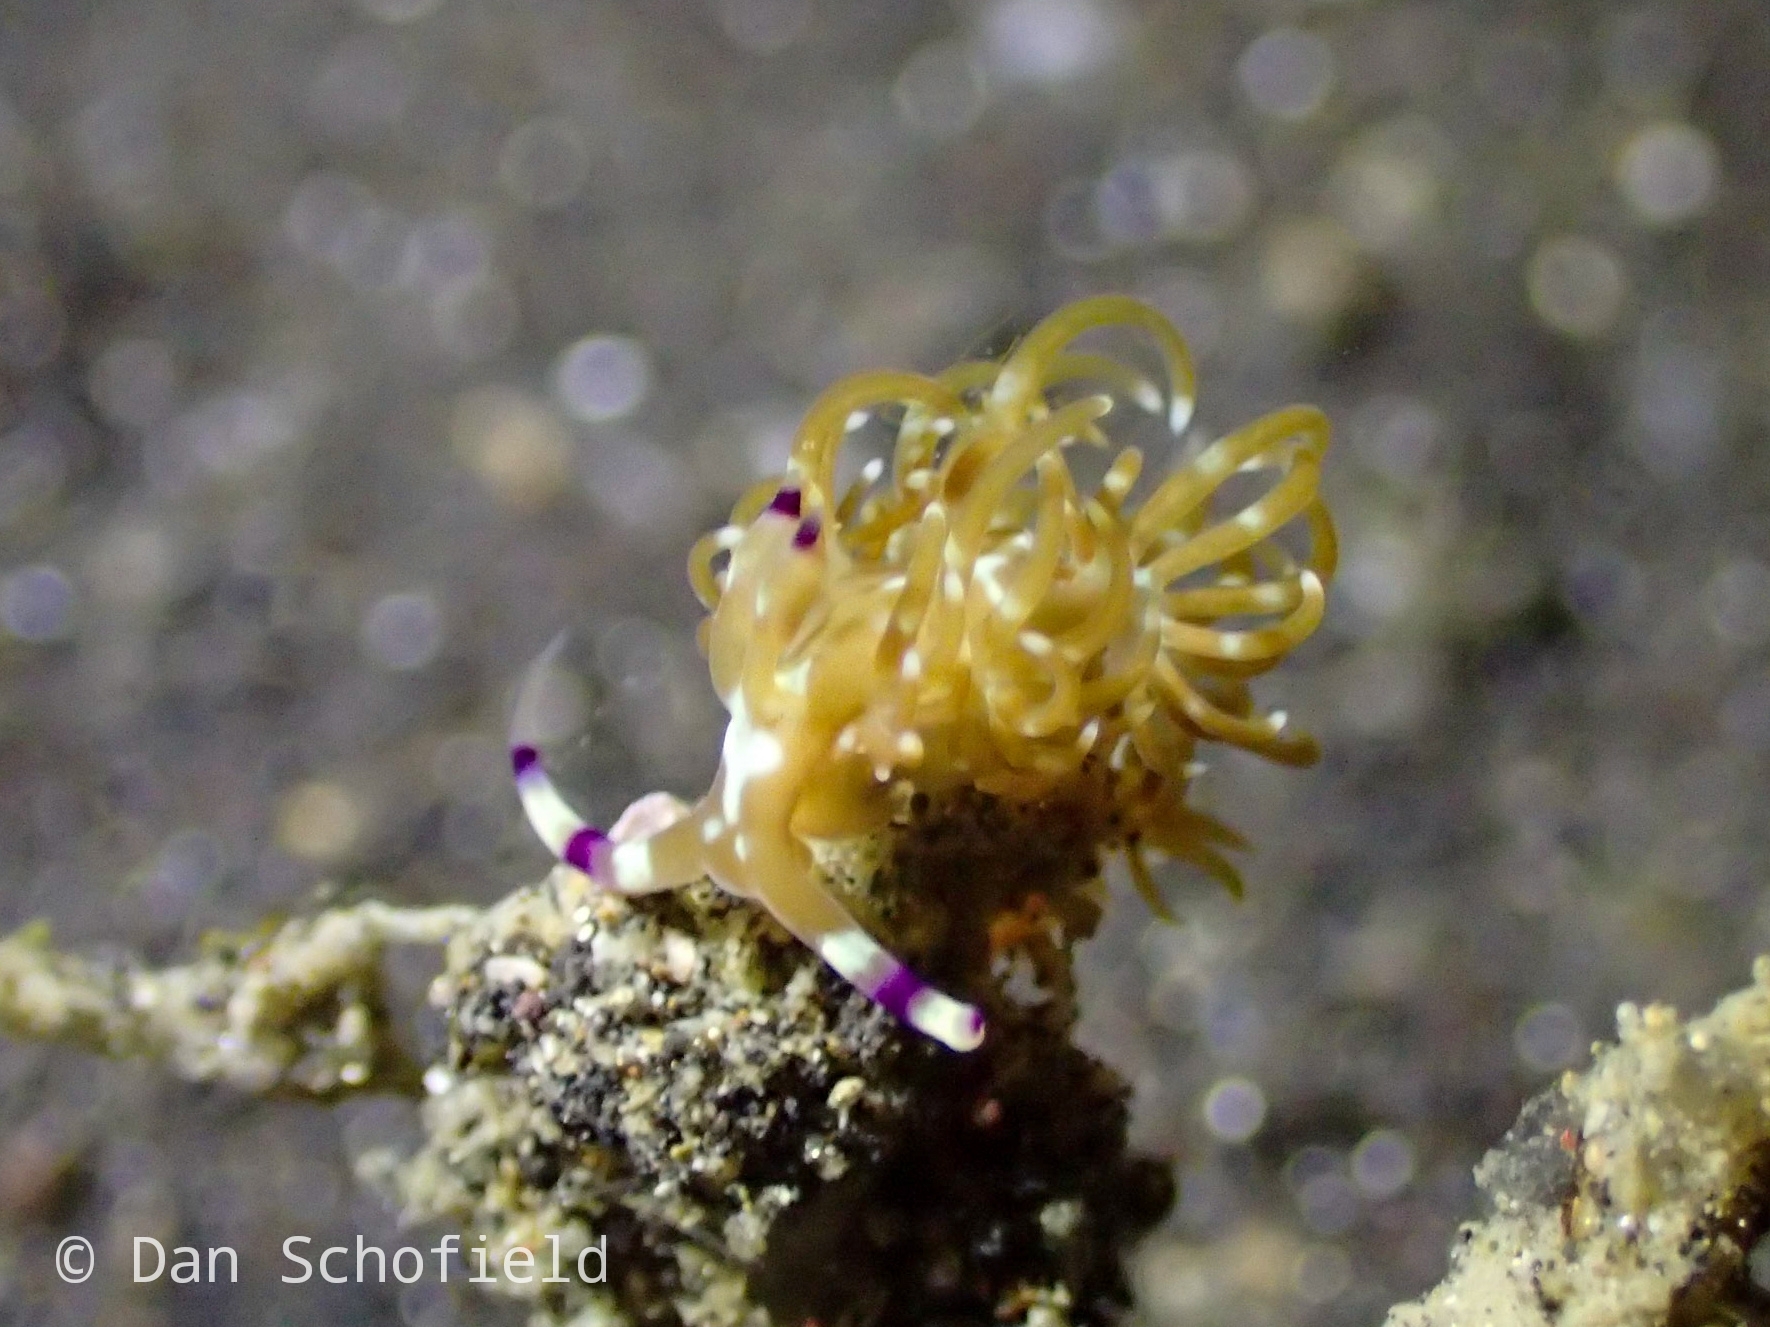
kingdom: Animalia
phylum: Mollusca
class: Gastropoda
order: Nudibranchia
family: Facelinidae
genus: Pteraeolidia
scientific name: Pteraeolidia semperi
